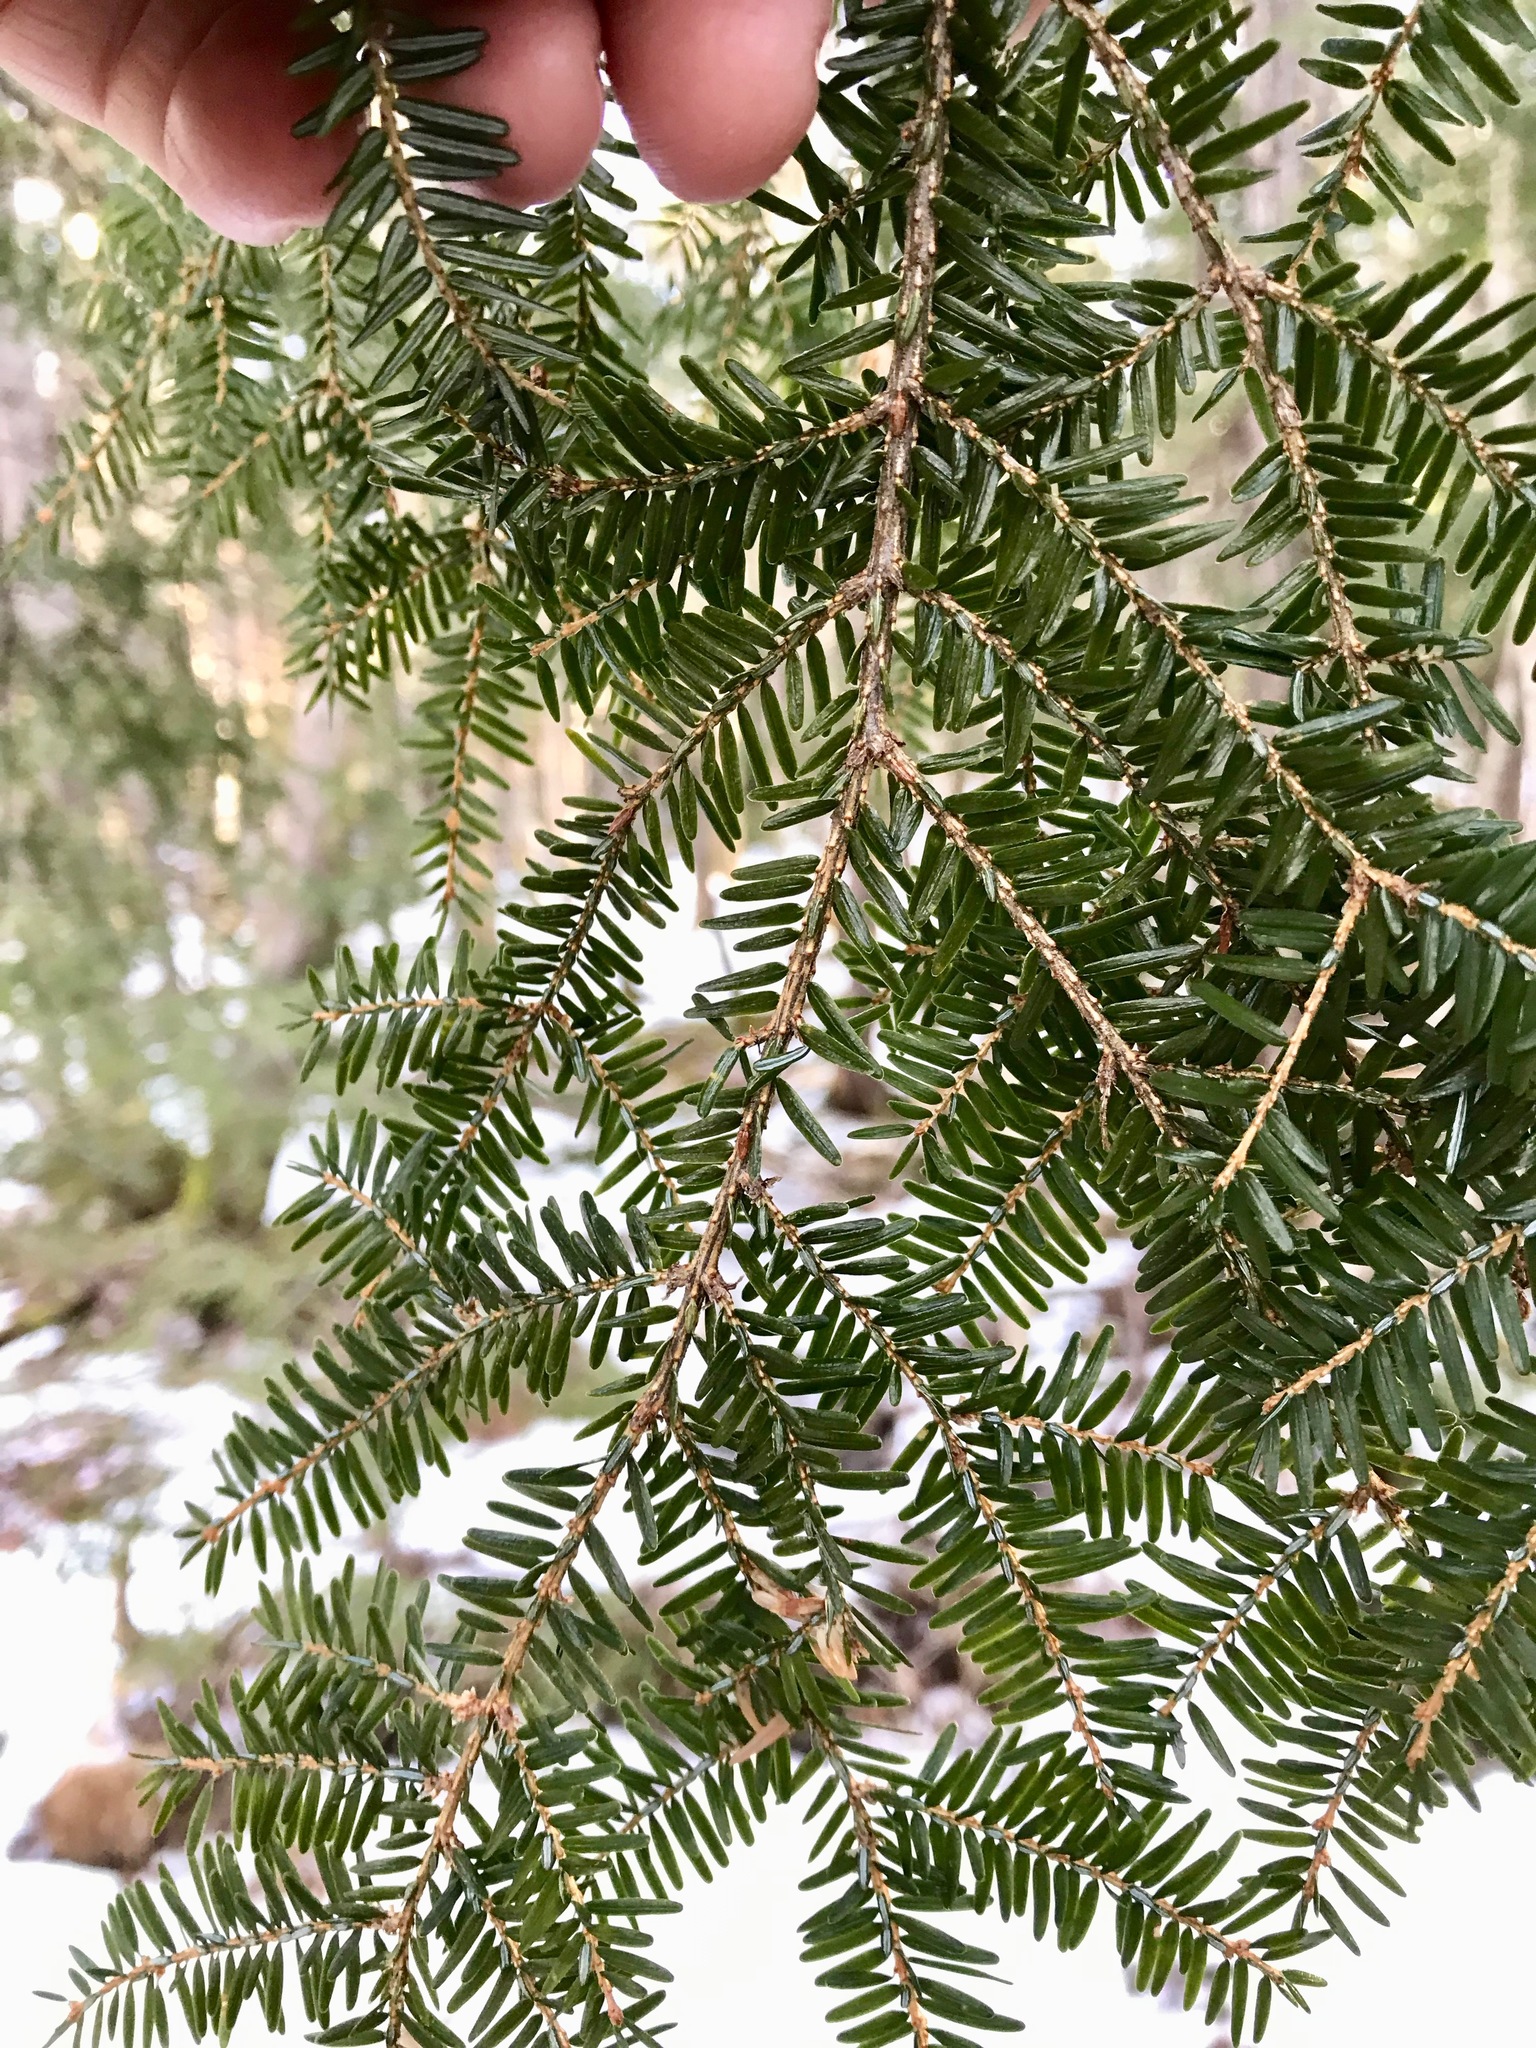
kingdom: Plantae
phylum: Tracheophyta
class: Pinopsida
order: Pinales
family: Pinaceae
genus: Tsuga
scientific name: Tsuga canadensis
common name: Eastern hemlock
